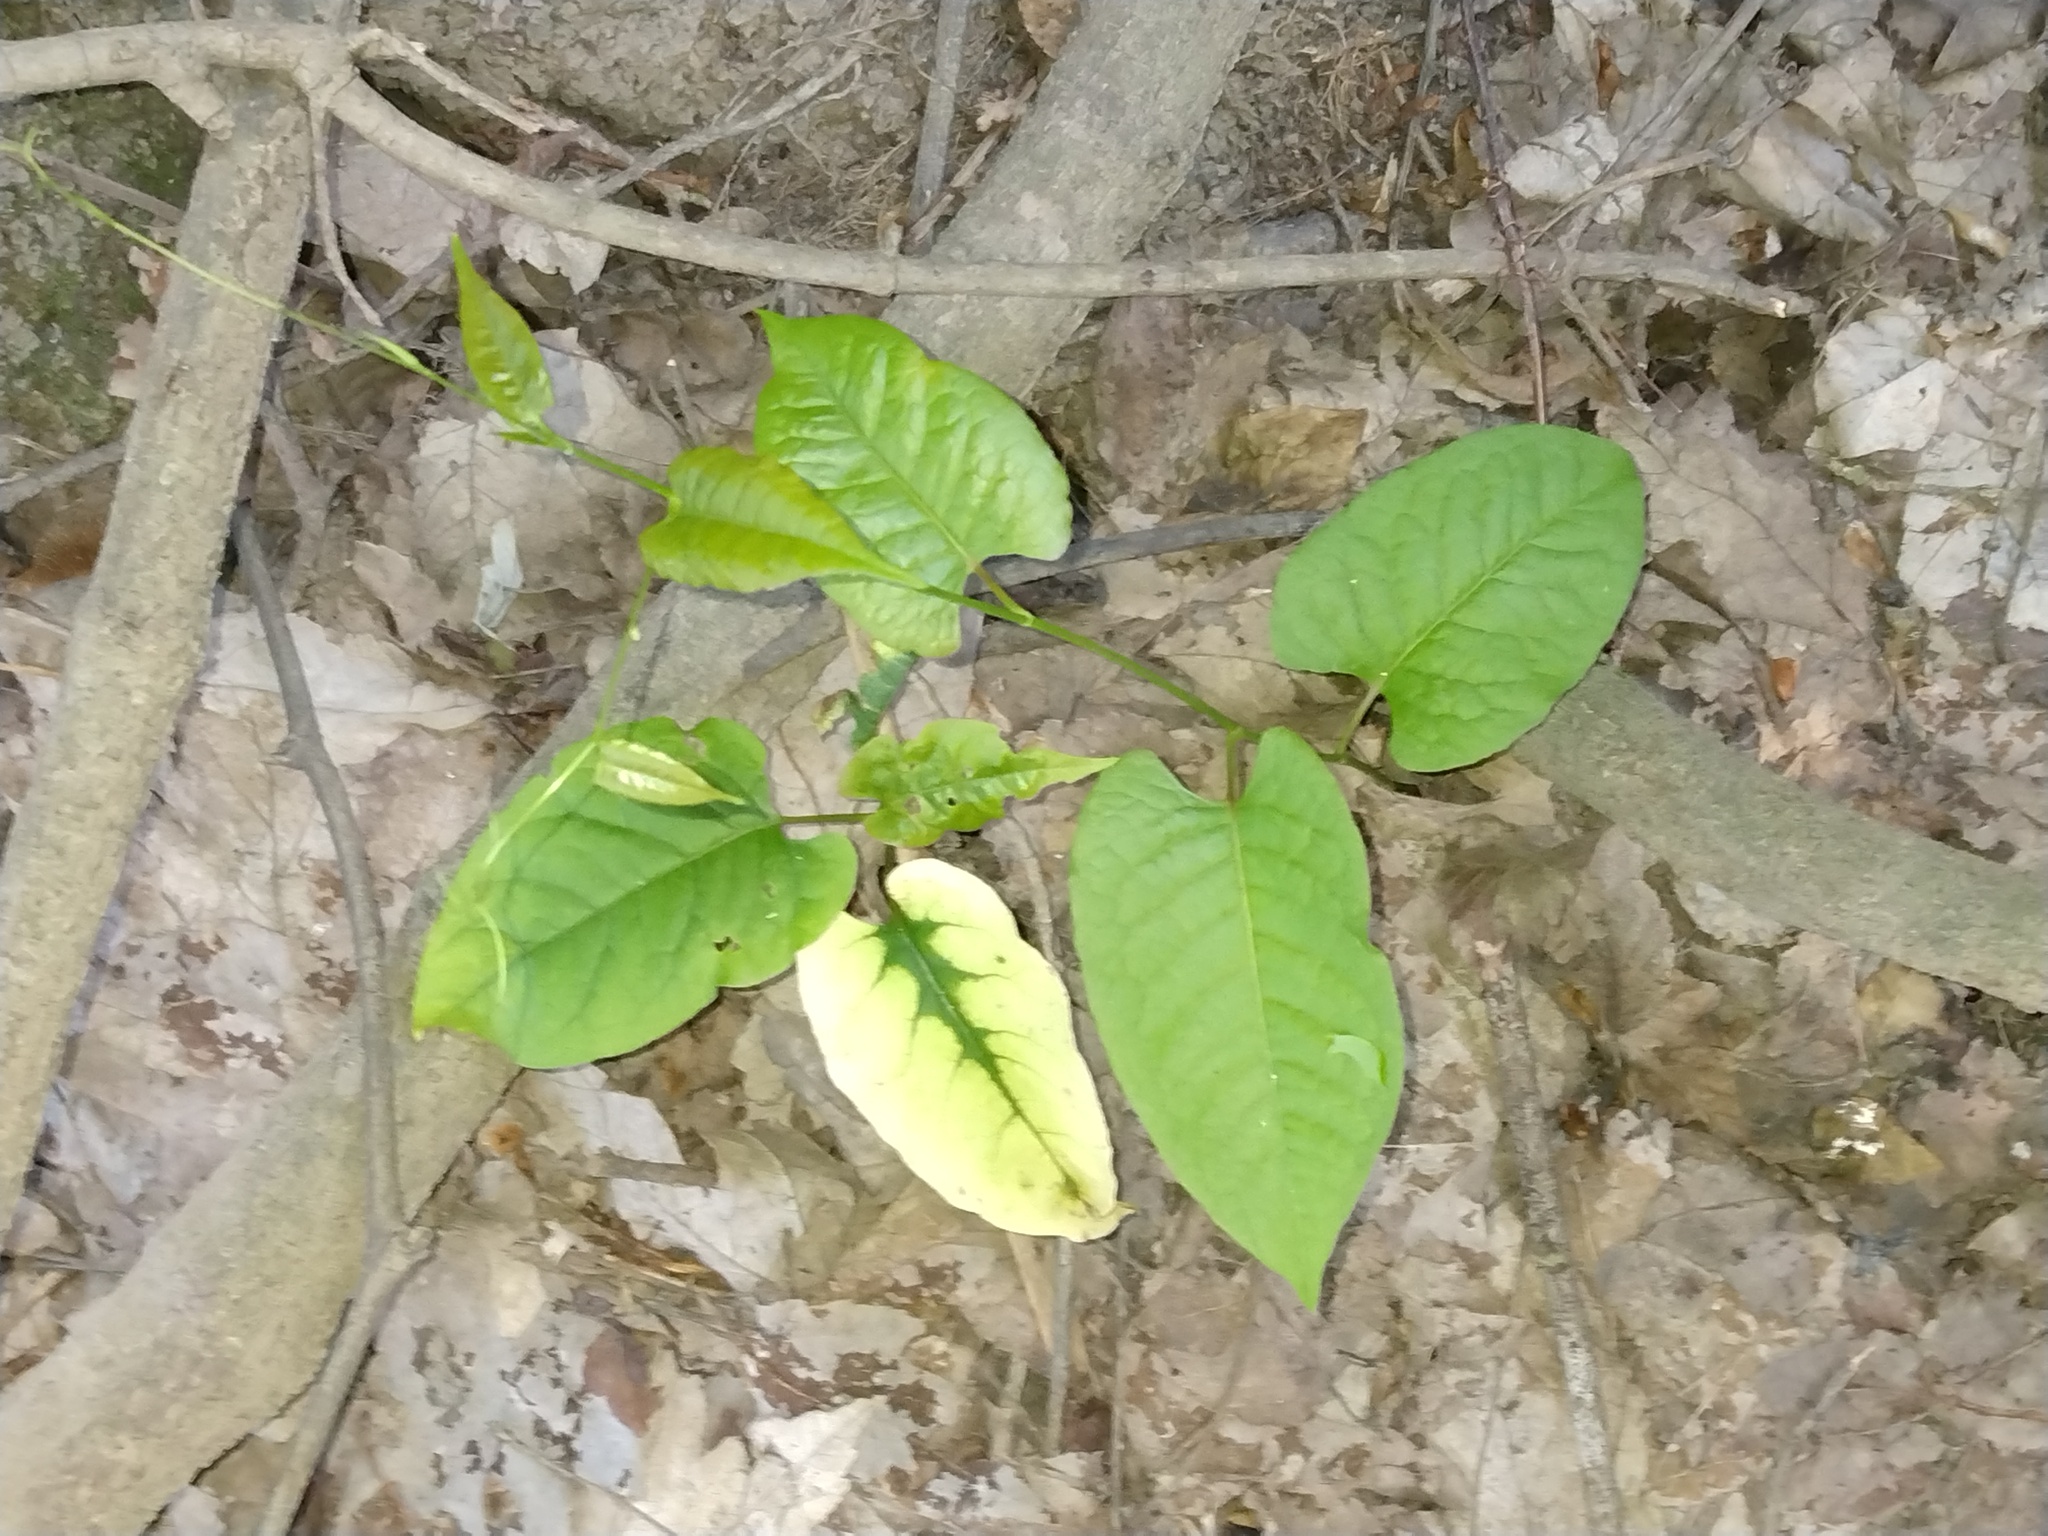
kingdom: Plantae
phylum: Tracheophyta
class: Magnoliopsida
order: Caryophyllales
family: Polygonaceae
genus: Brunnichia
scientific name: Brunnichia ovata
